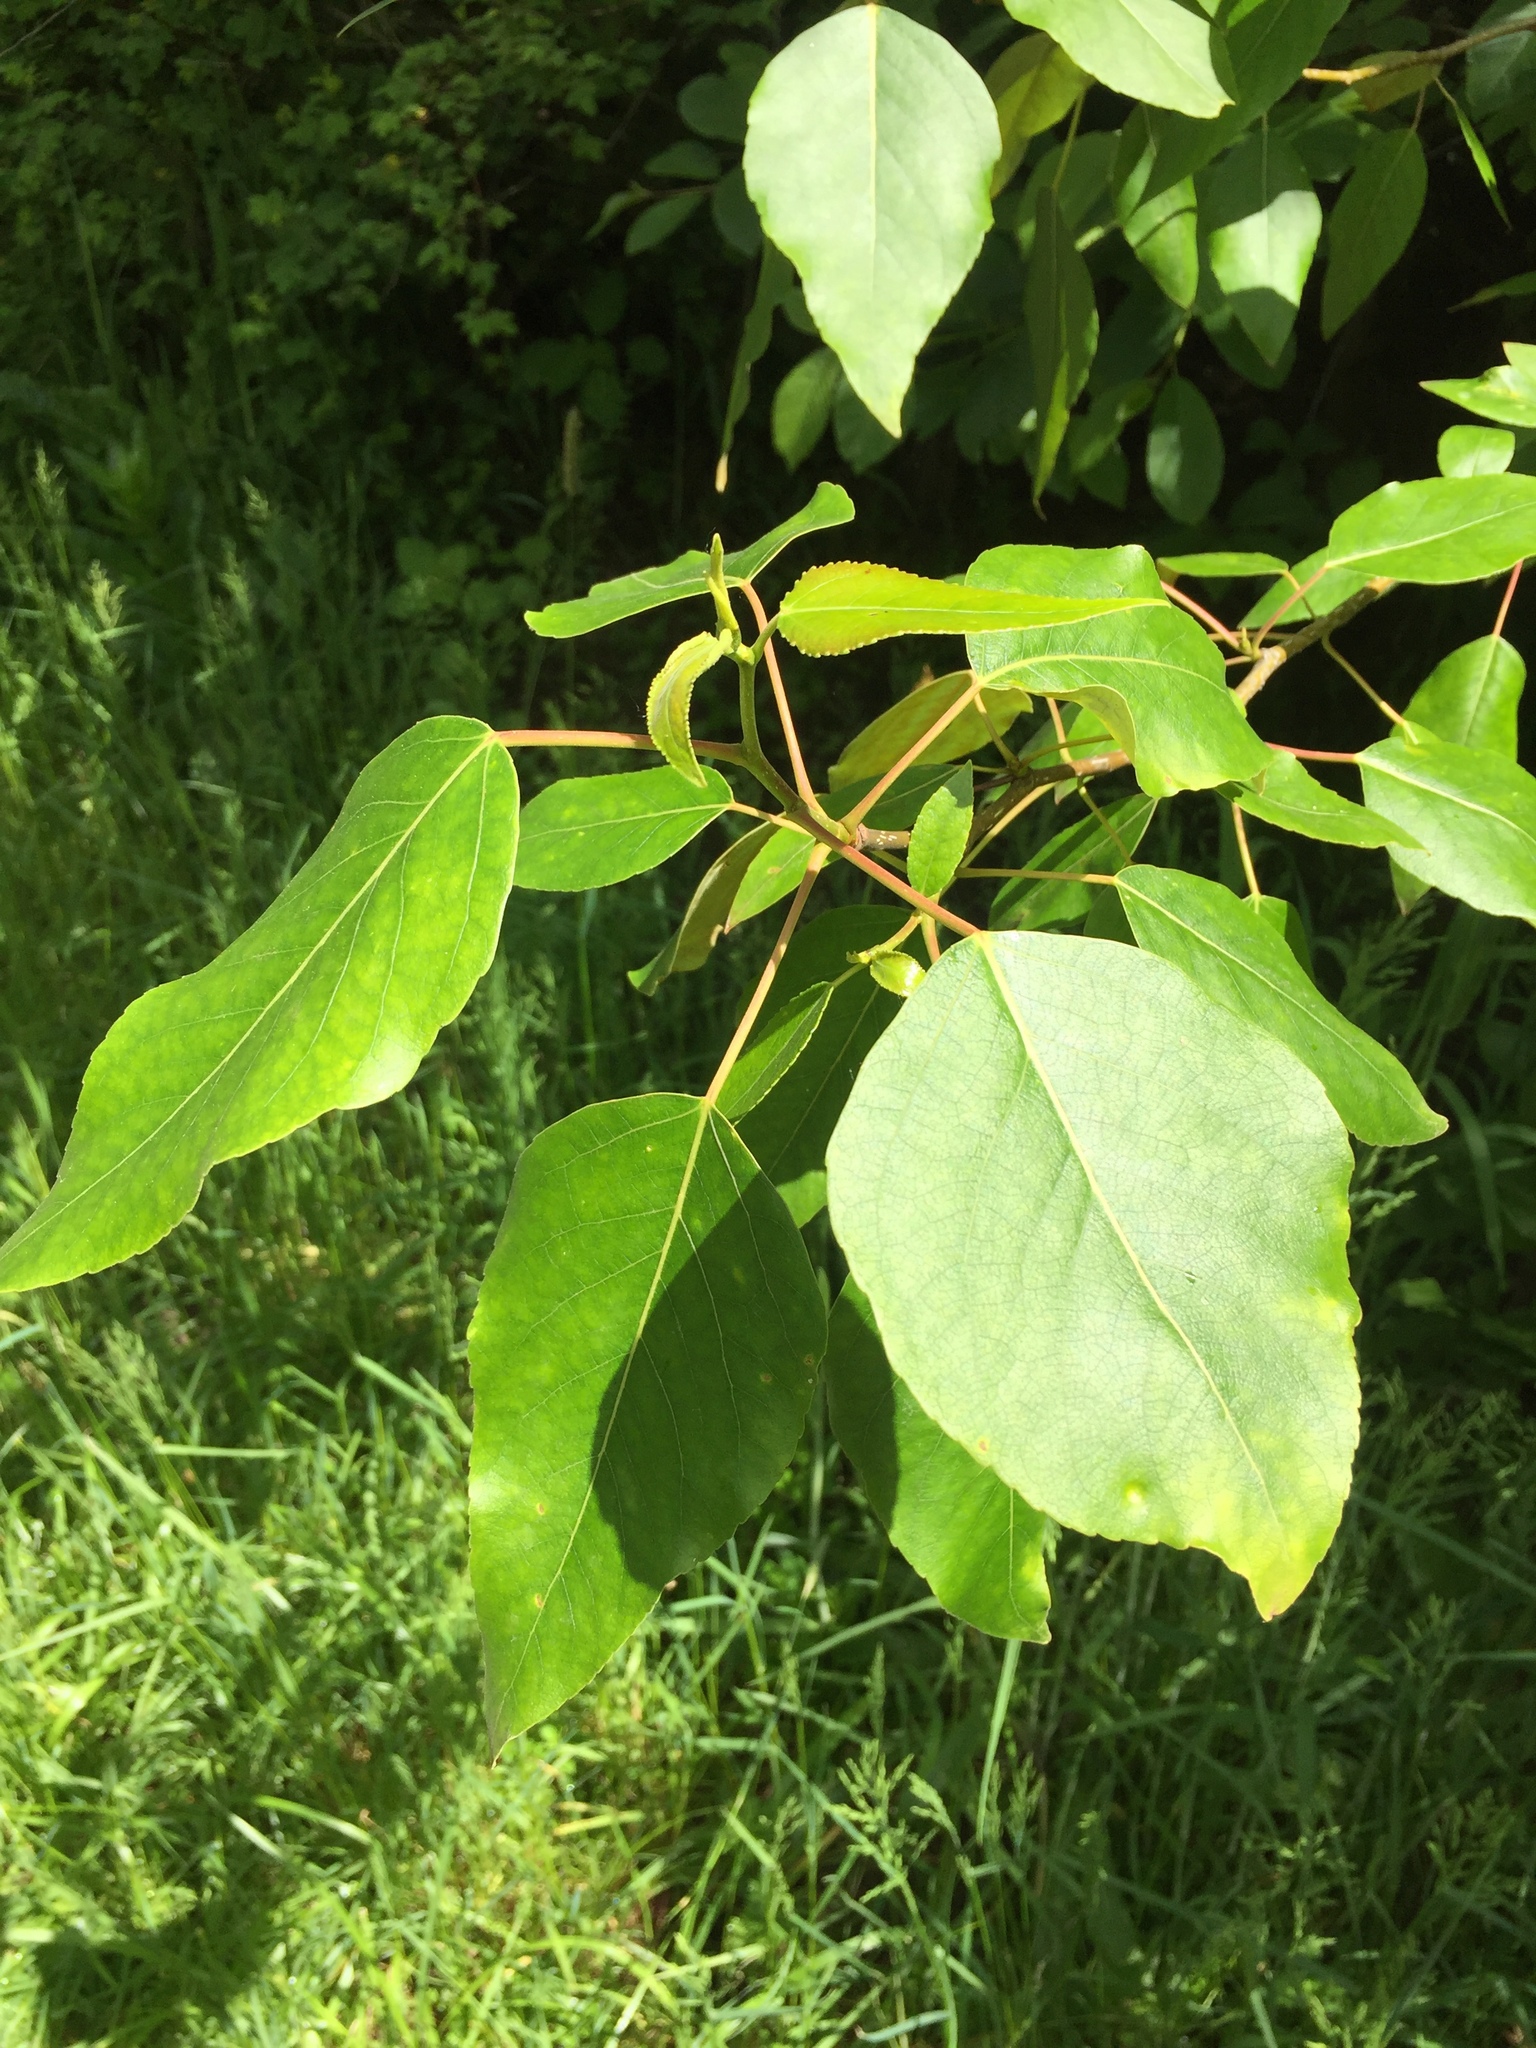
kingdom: Plantae
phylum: Tracheophyta
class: Magnoliopsida
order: Malpighiales
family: Salicaceae
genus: Populus
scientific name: Populus trichocarpa
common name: Black cottonwood
